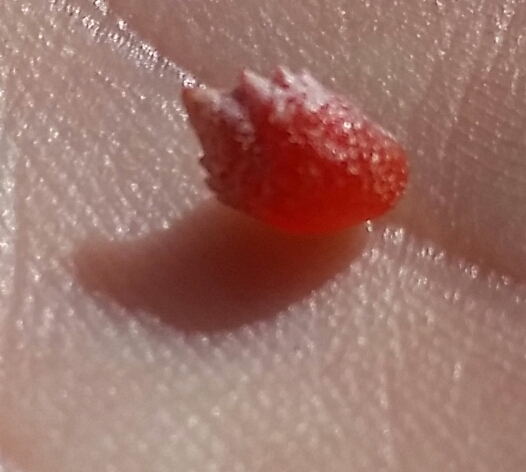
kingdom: Plantae
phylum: Tracheophyta
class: Magnoliopsida
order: Caryophyllales
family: Amaranthaceae
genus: Atriplex
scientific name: Atriplex semibaccata
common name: Australian saltbush
